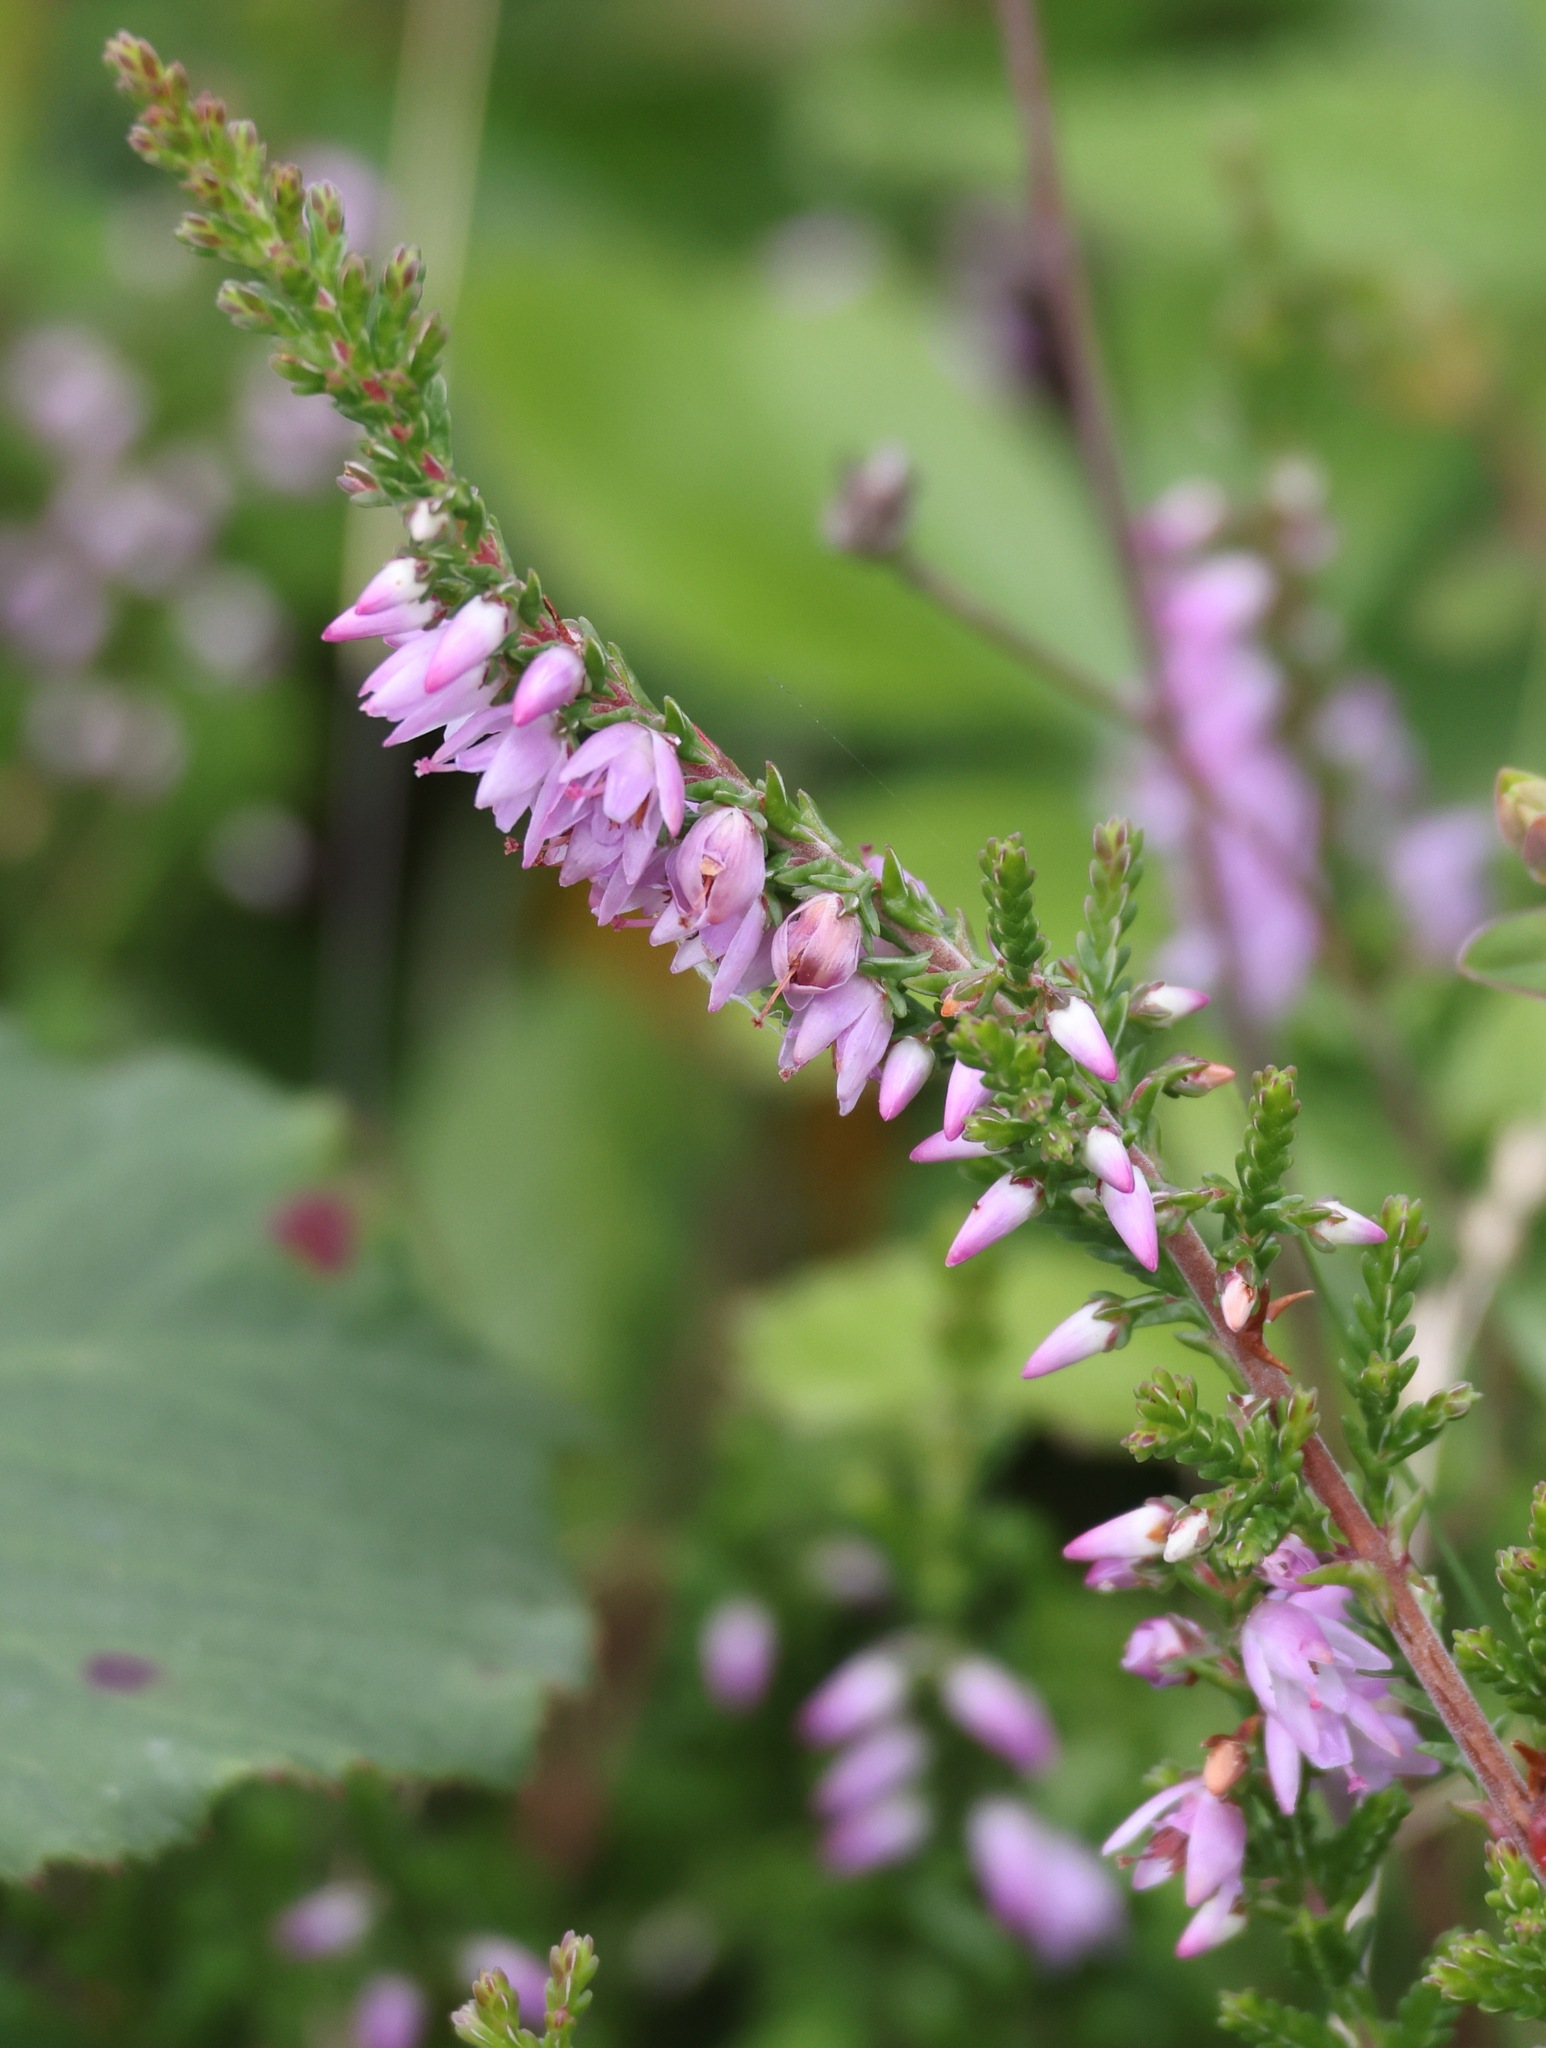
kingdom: Plantae
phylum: Tracheophyta
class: Magnoliopsida
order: Ericales
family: Ericaceae
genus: Calluna
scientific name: Calluna vulgaris
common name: Heather
